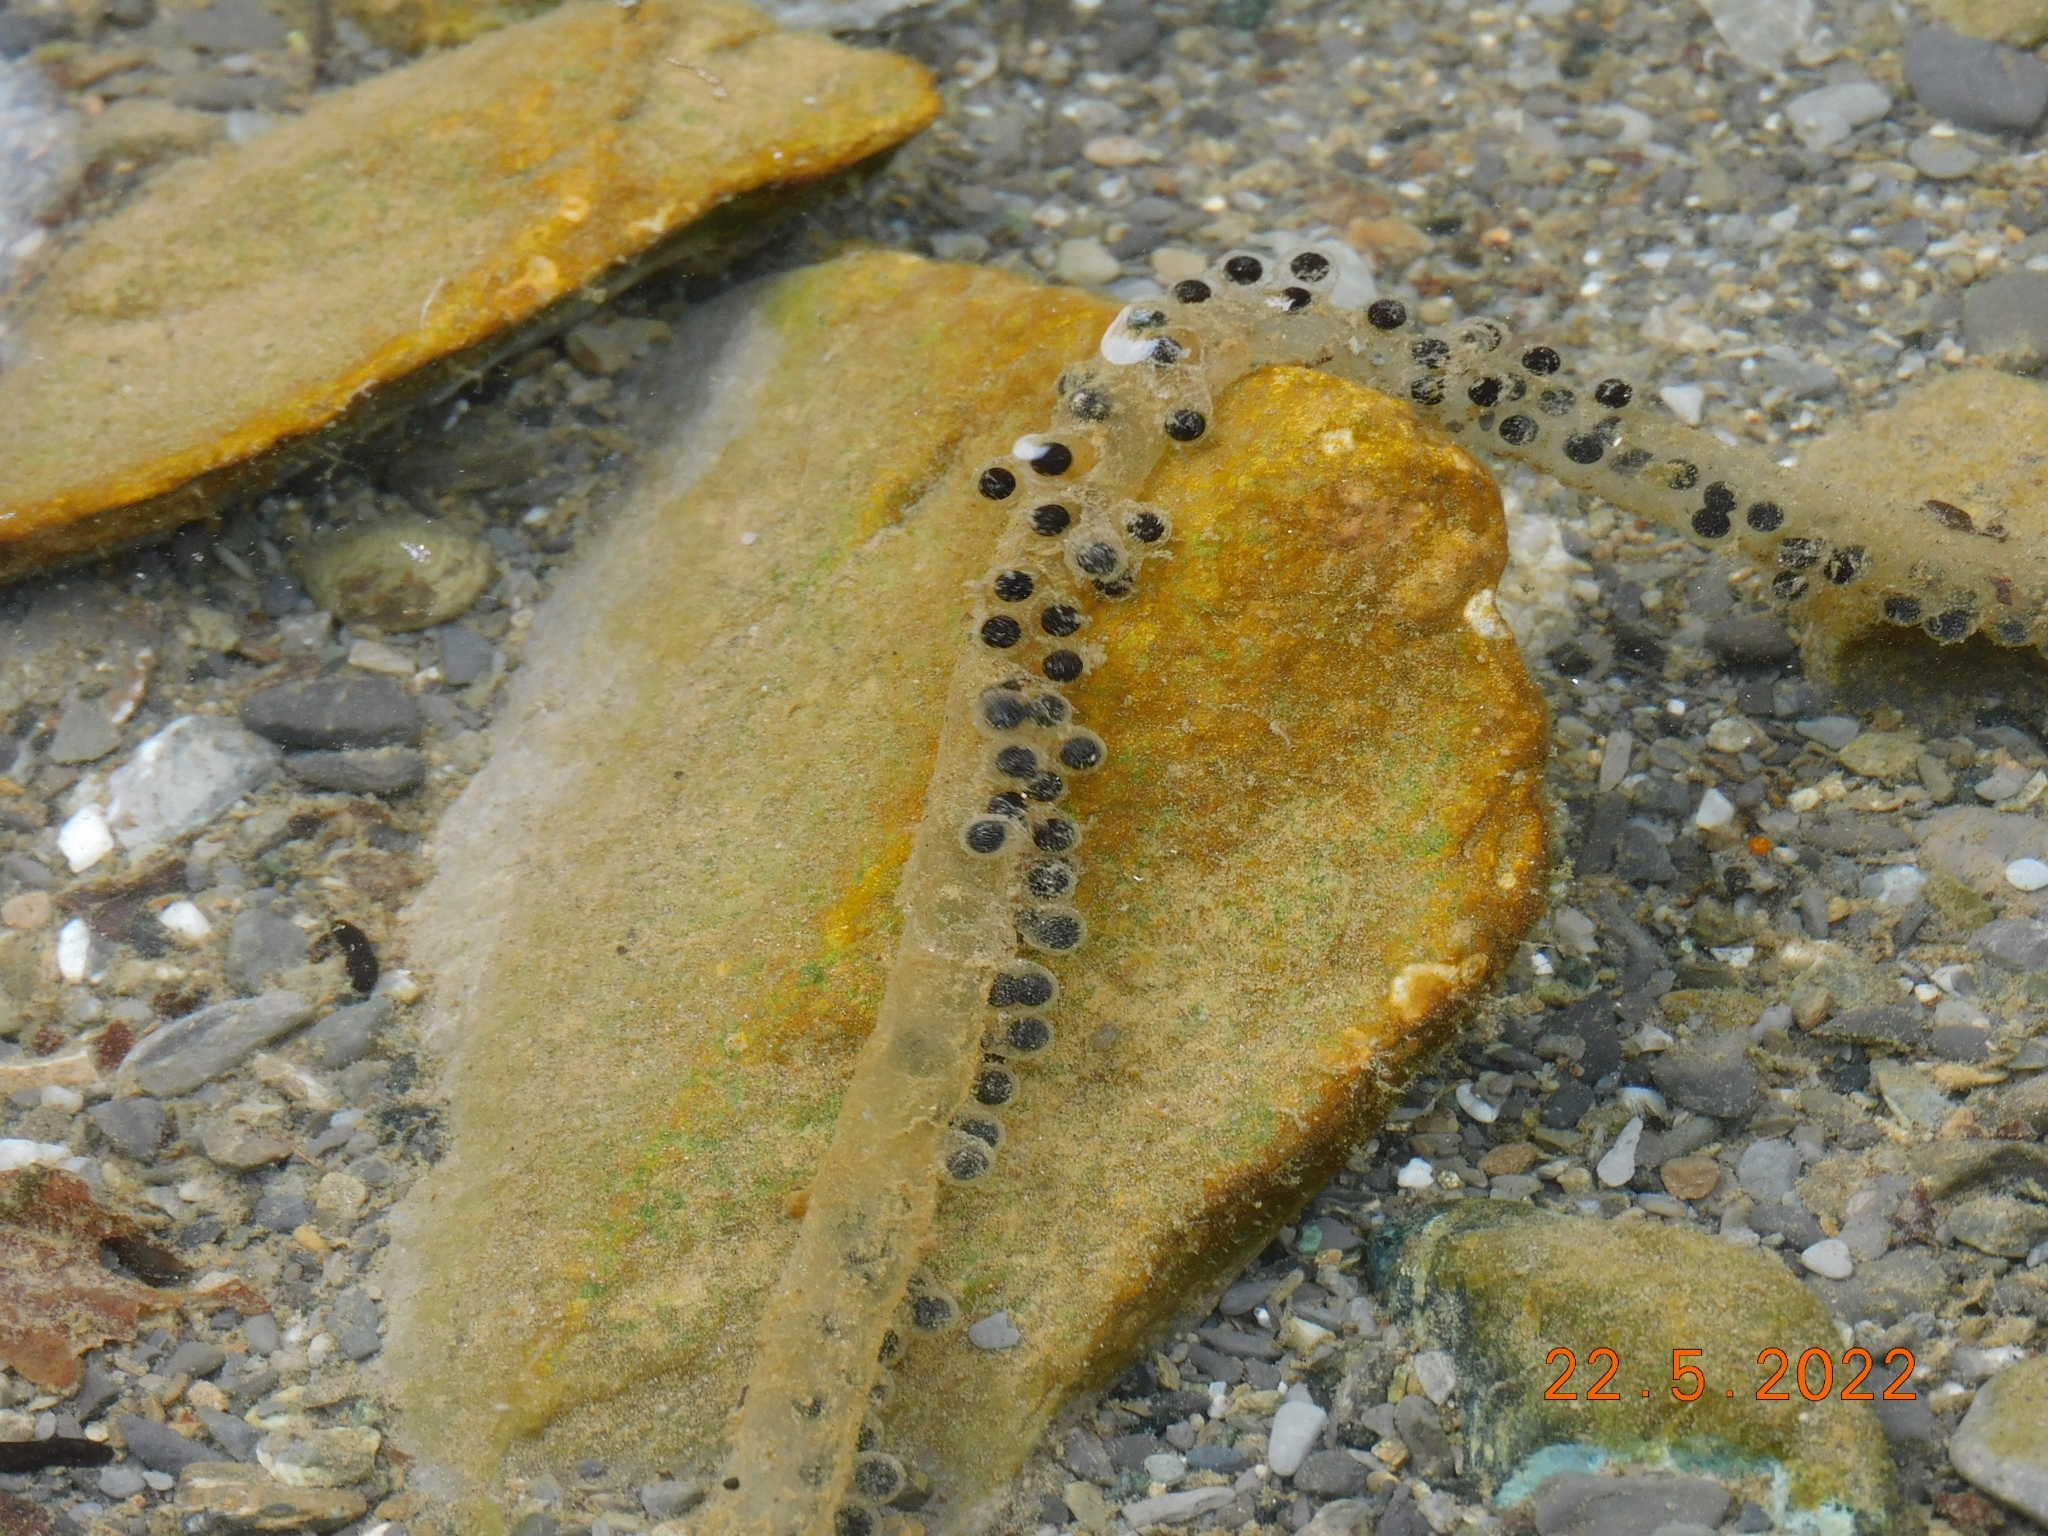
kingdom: Animalia
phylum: Chordata
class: Amphibia
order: Anura
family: Bufonidae
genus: Bufo
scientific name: Bufo bufo
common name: Common toad
